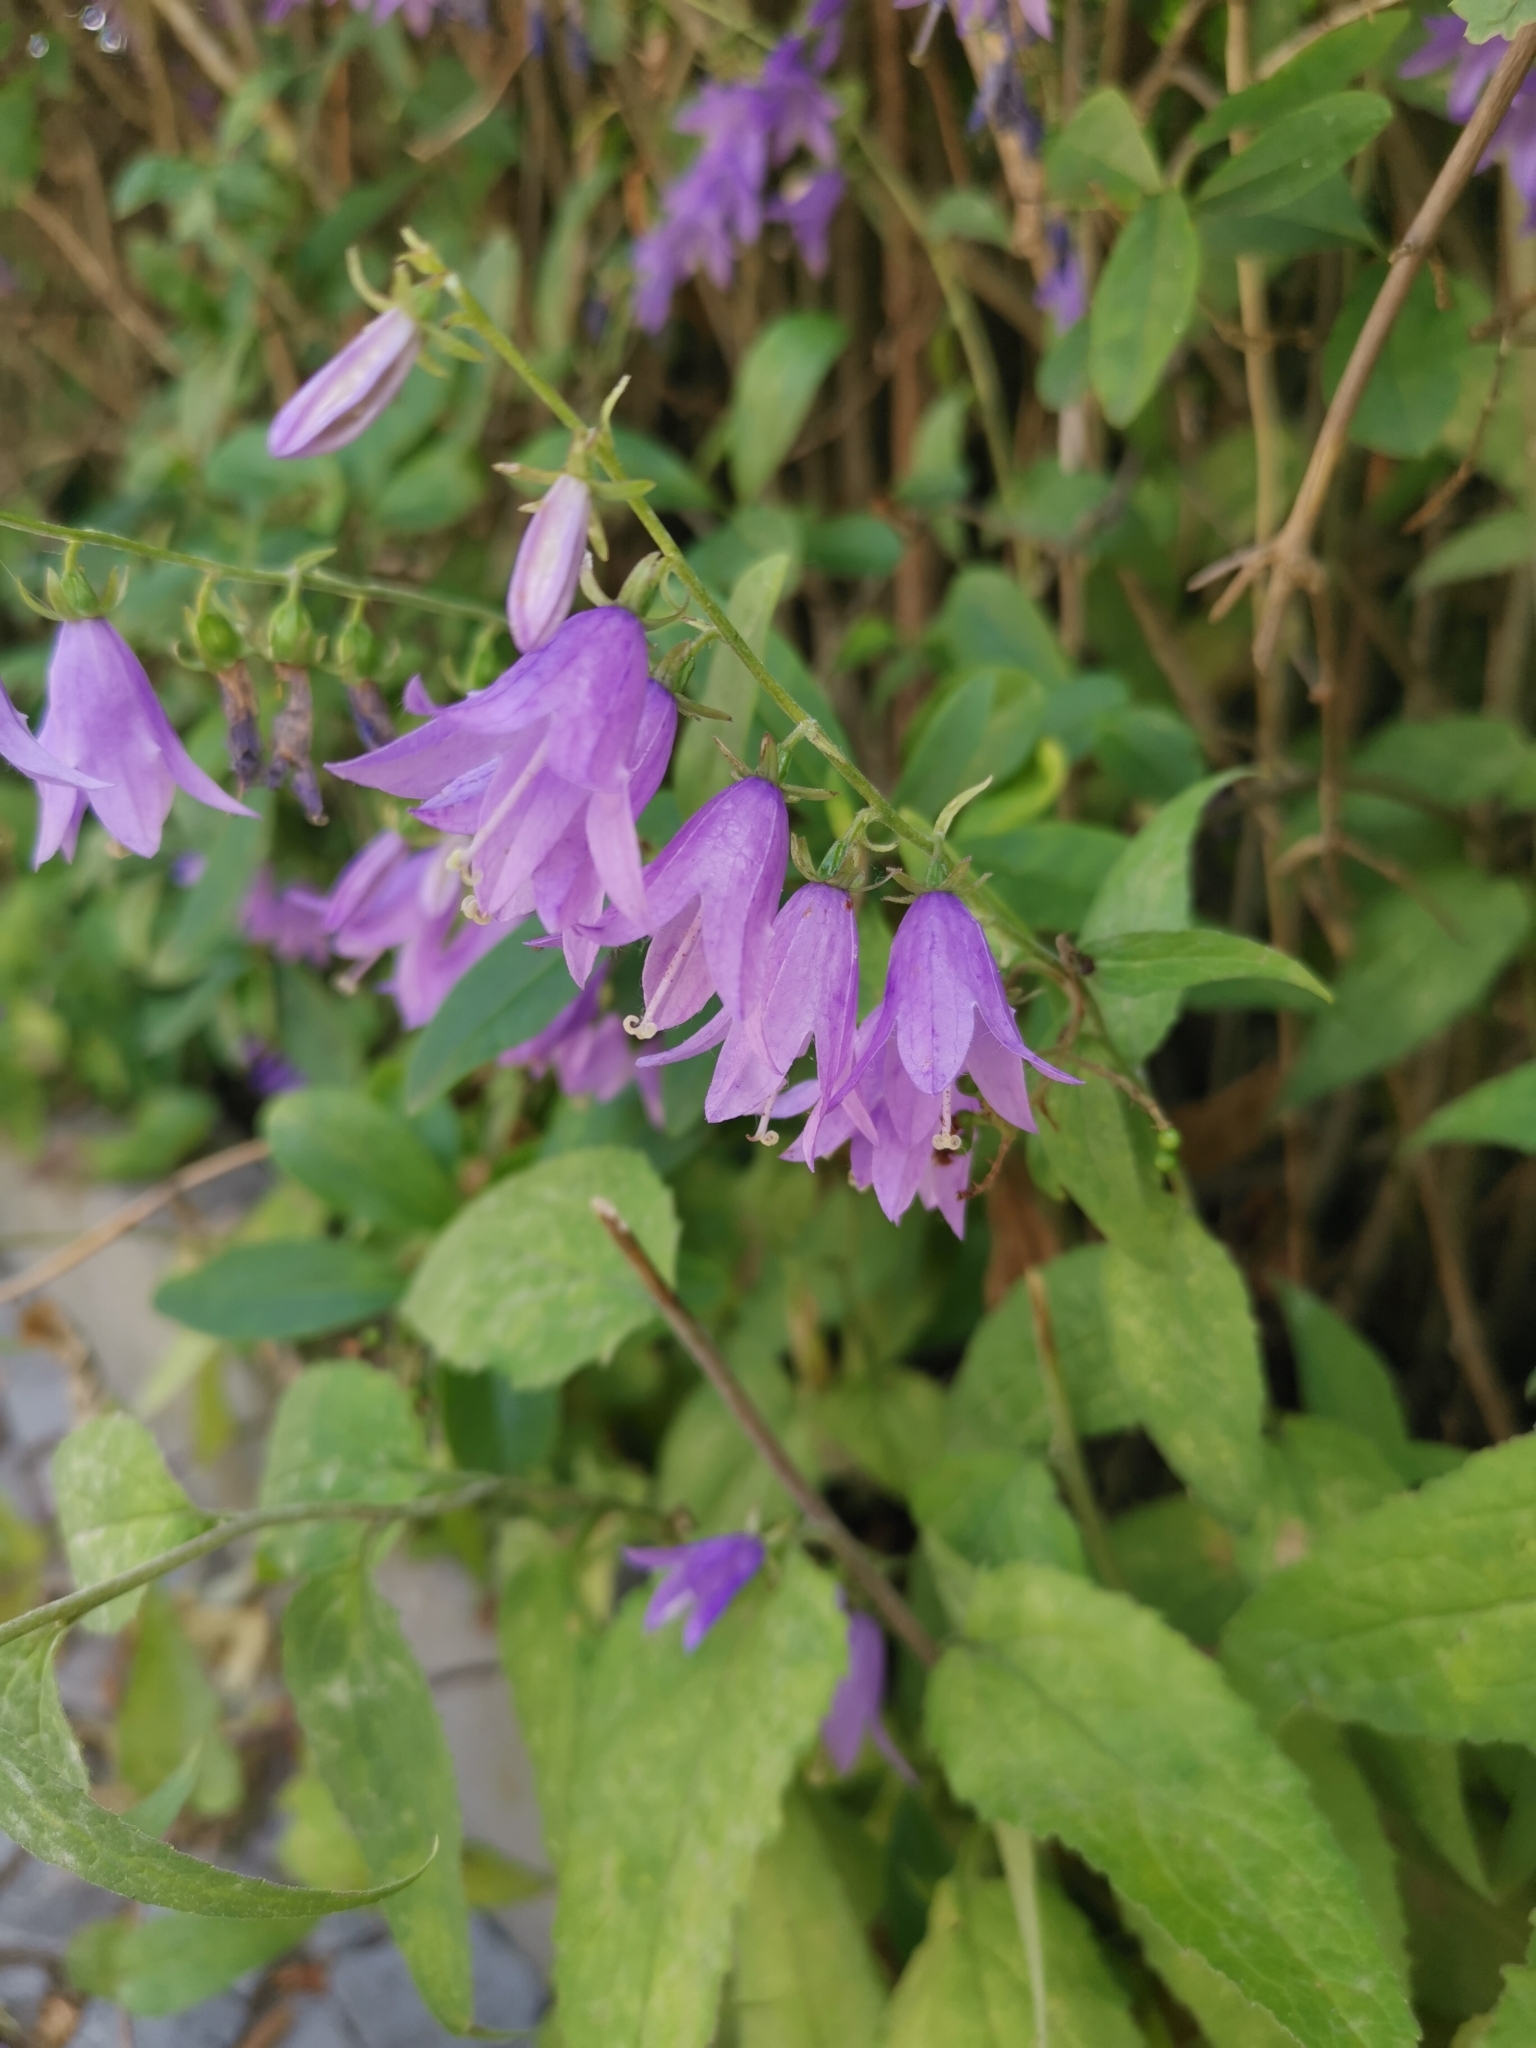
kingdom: Plantae
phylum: Tracheophyta
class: Magnoliopsida
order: Asterales
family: Campanulaceae
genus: Campanula
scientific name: Campanula rapunculoides
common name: Creeping bellflower
